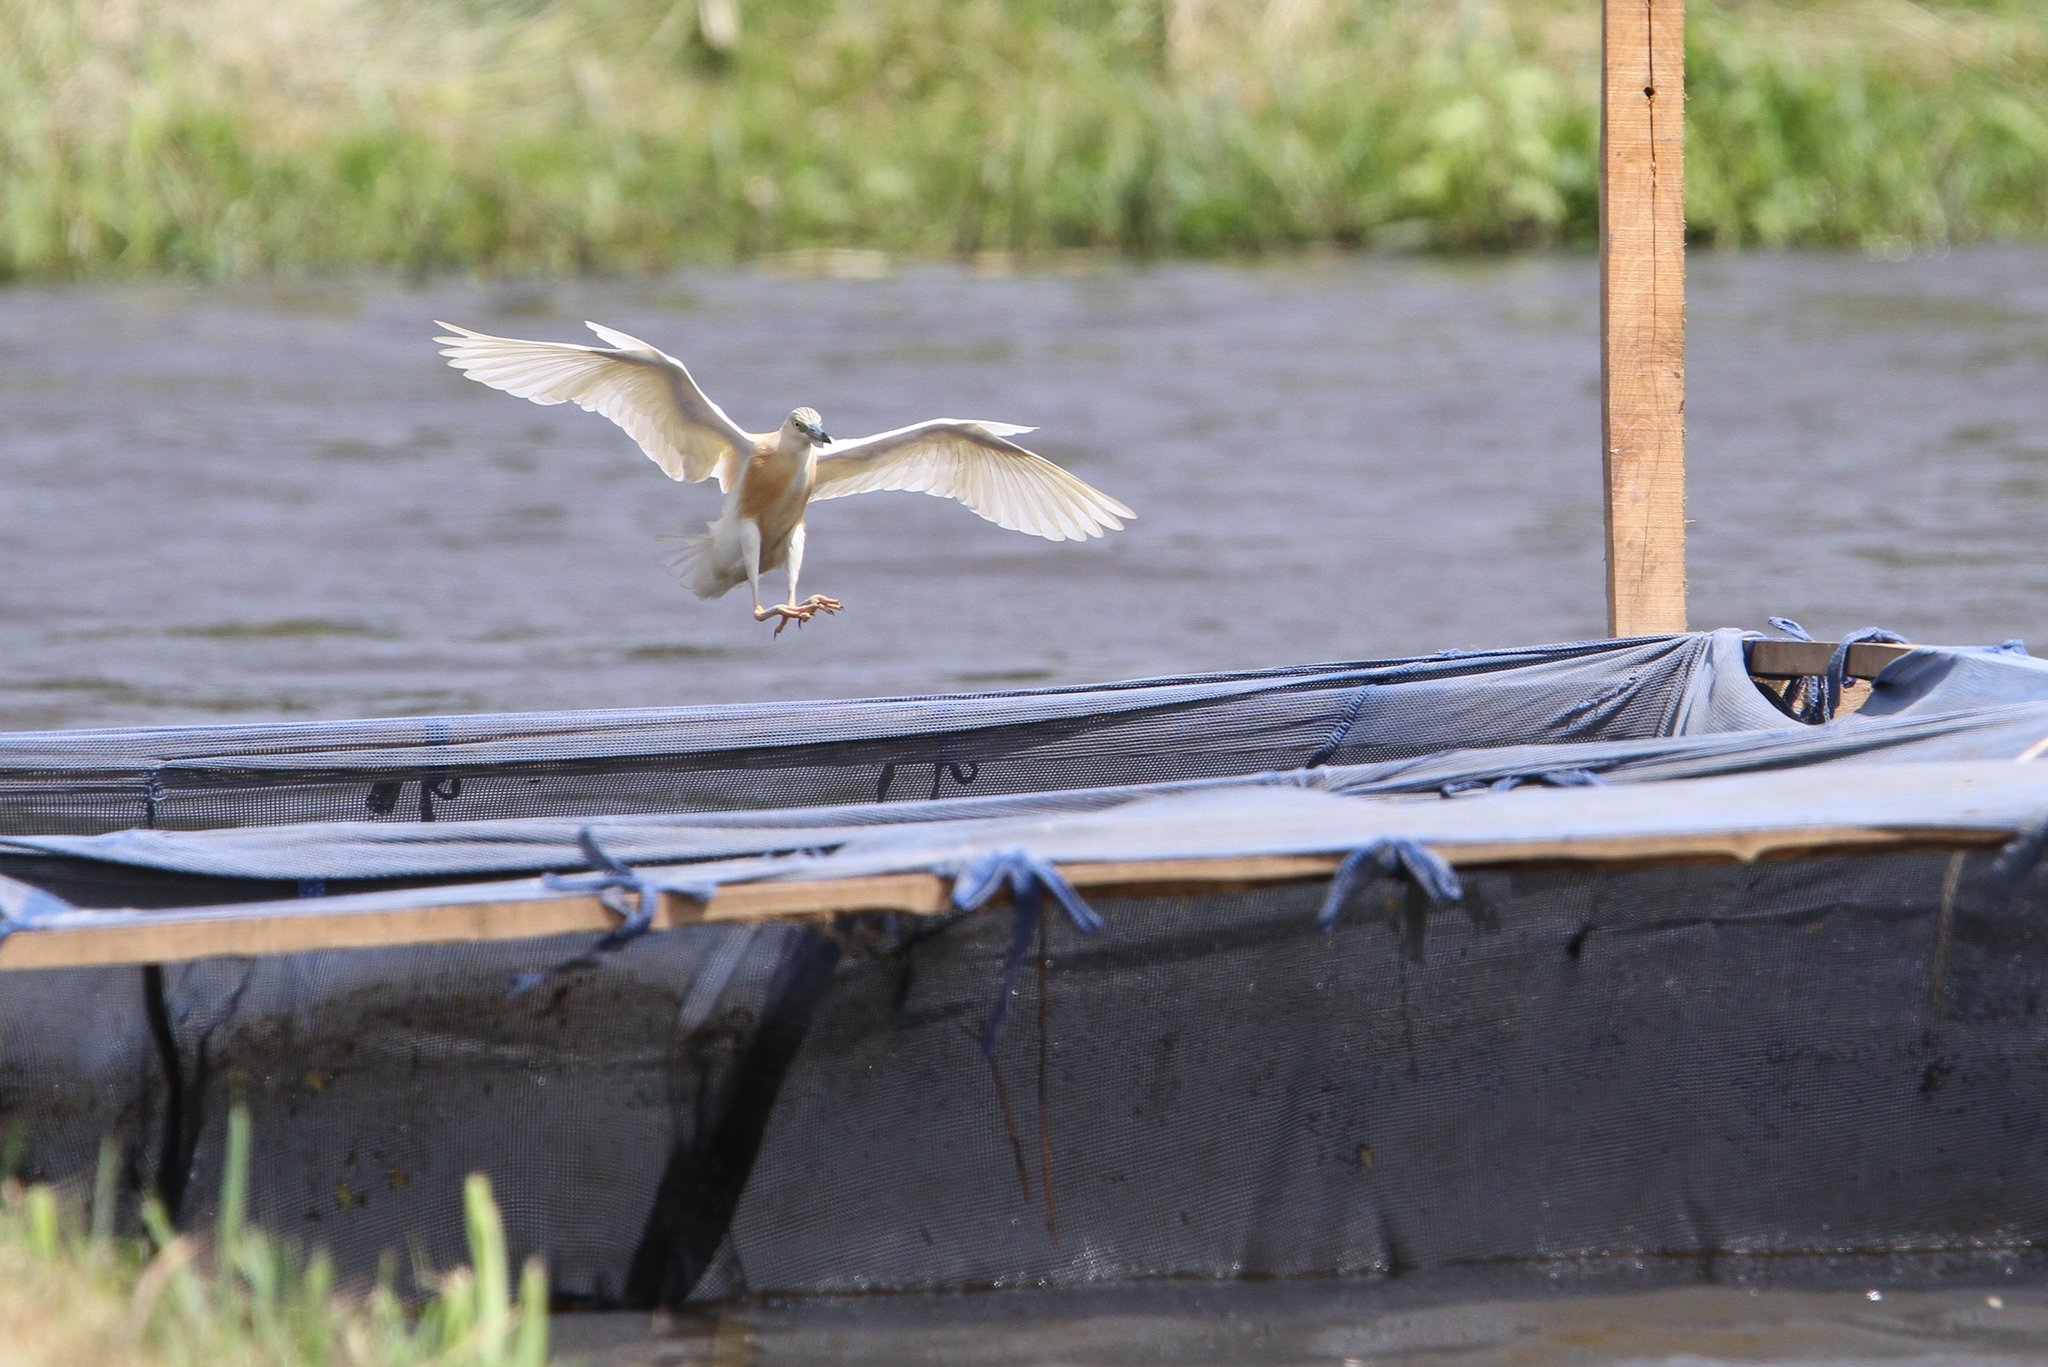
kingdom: Animalia
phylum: Chordata
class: Aves
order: Pelecaniformes
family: Ardeidae
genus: Ardeola
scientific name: Ardeola ralloides
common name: Squacco heron
